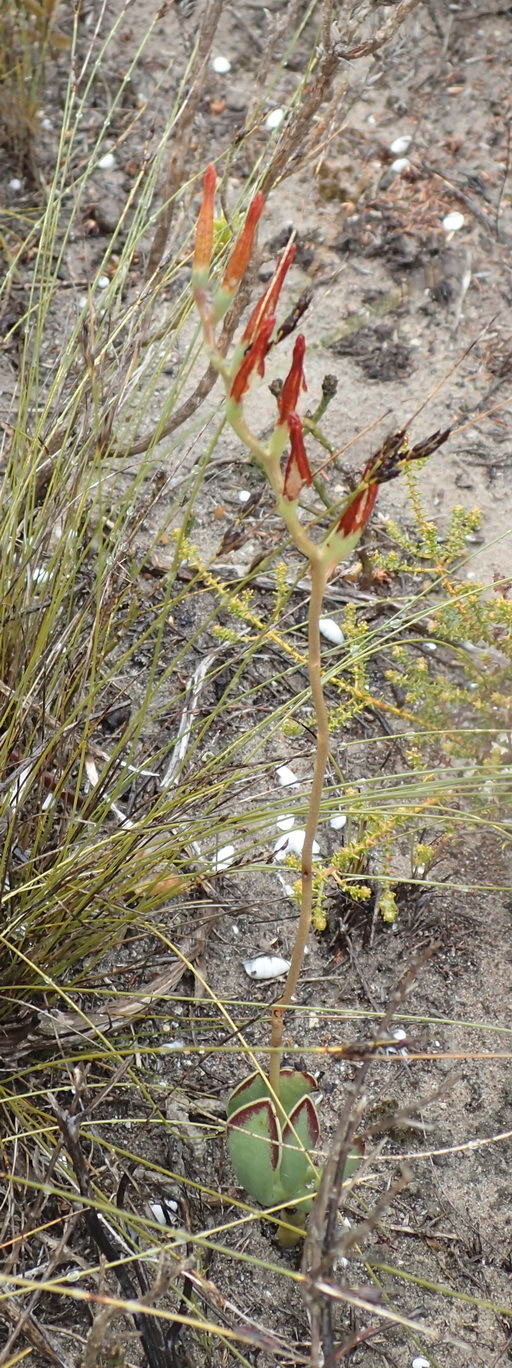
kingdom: Plantae
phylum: Tracheophyta
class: Magnoliopsida
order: Saxifragales
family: Crassulaceae
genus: Adromischus
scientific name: Adromischus caryophyllaceus
